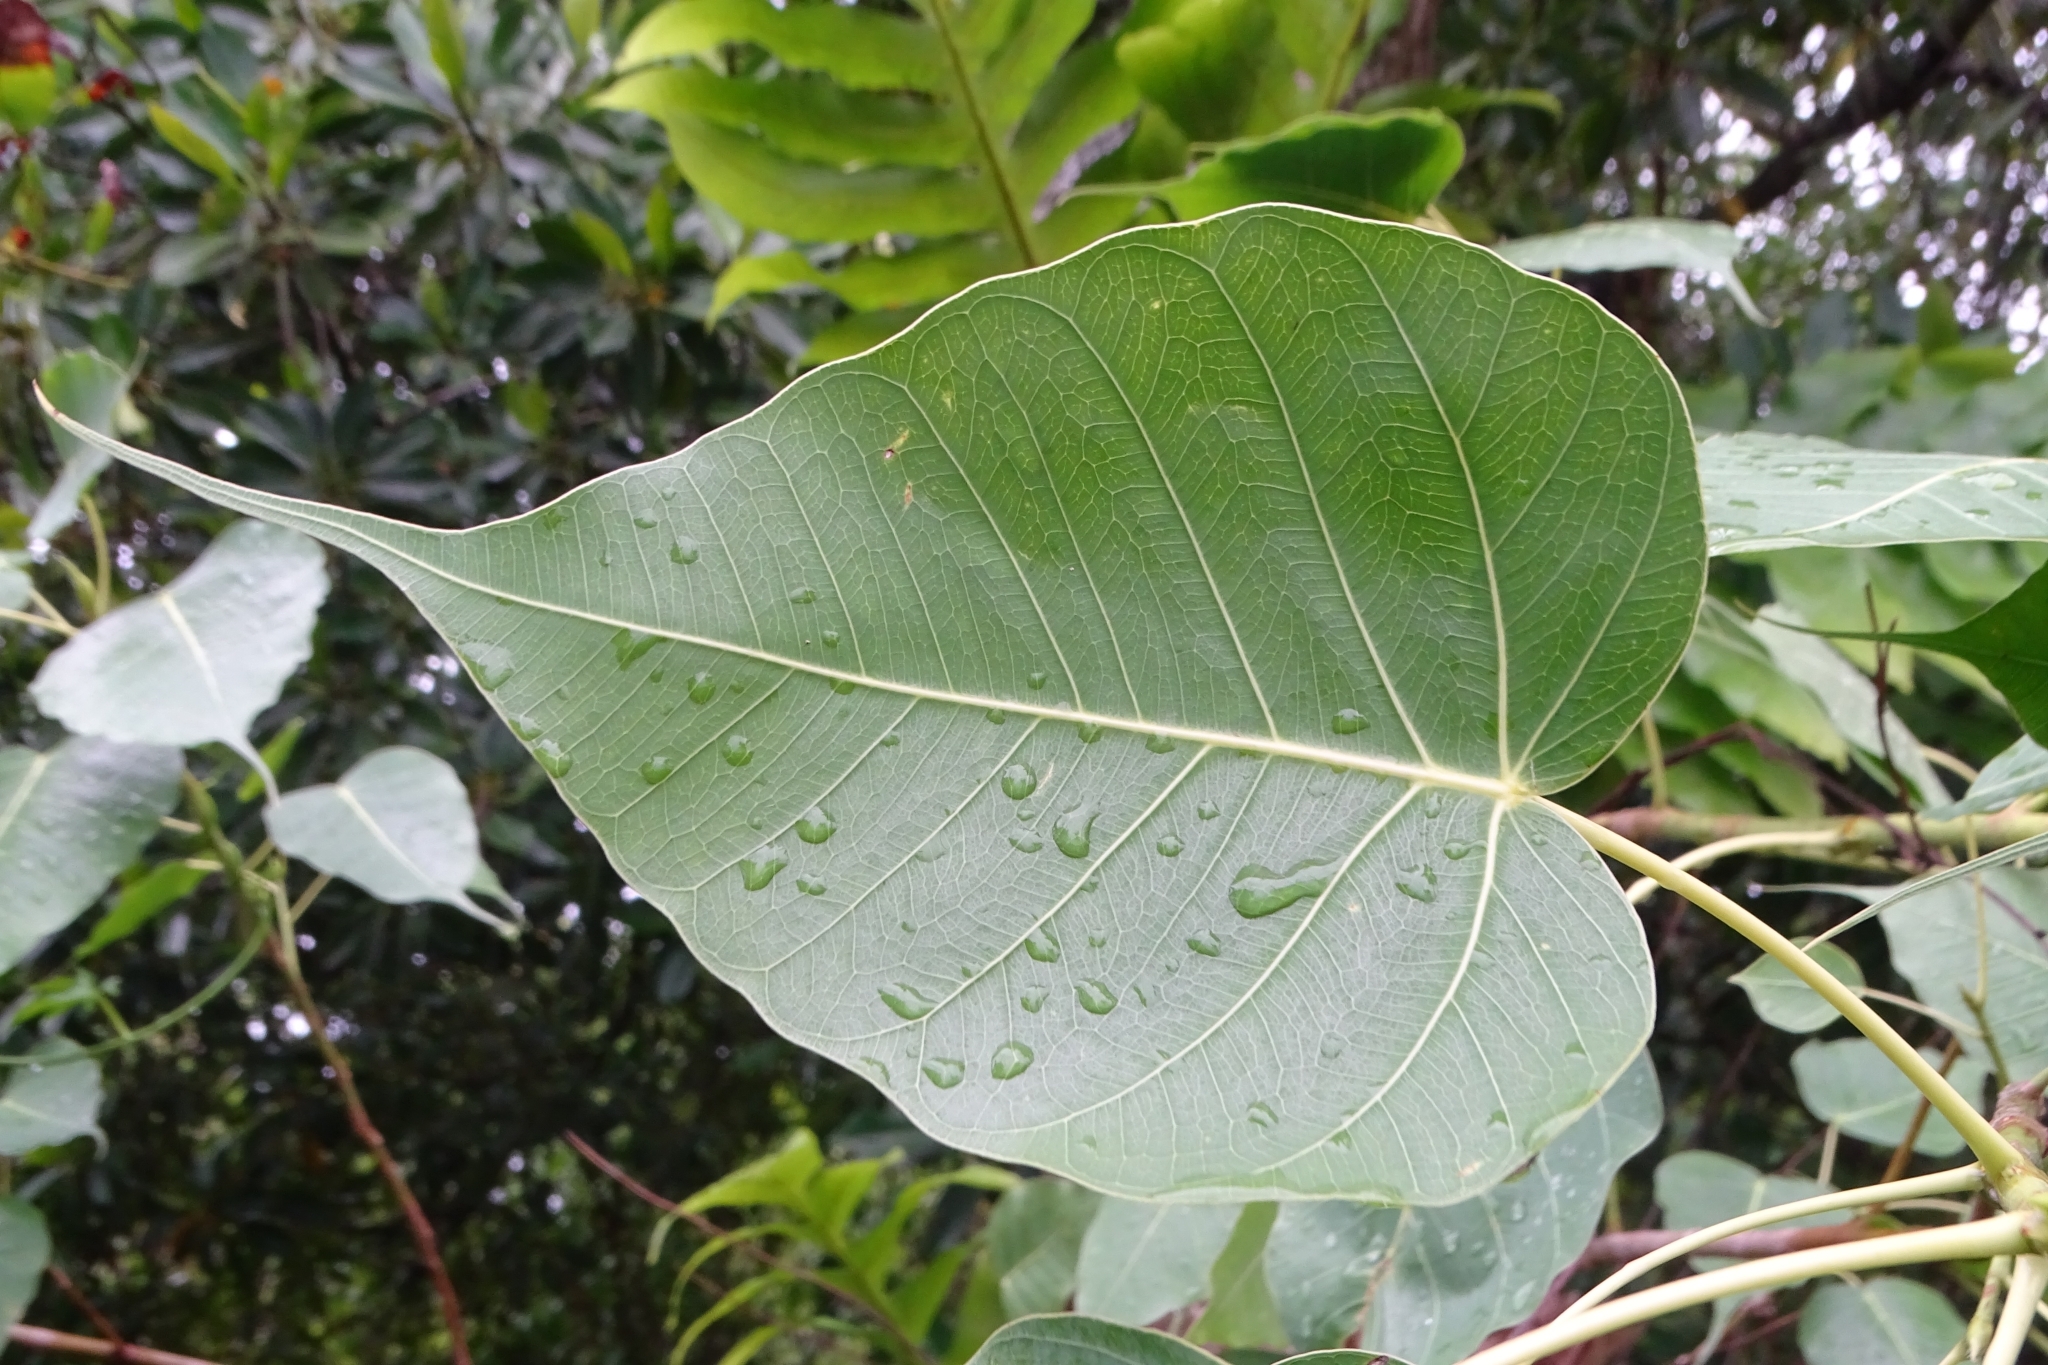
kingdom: Plantae
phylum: Tracheophyta
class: Magnoliopsida
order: Rosales
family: Moraceae
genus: Ficus
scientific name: Ficus religiosa
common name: Bodhi tree
